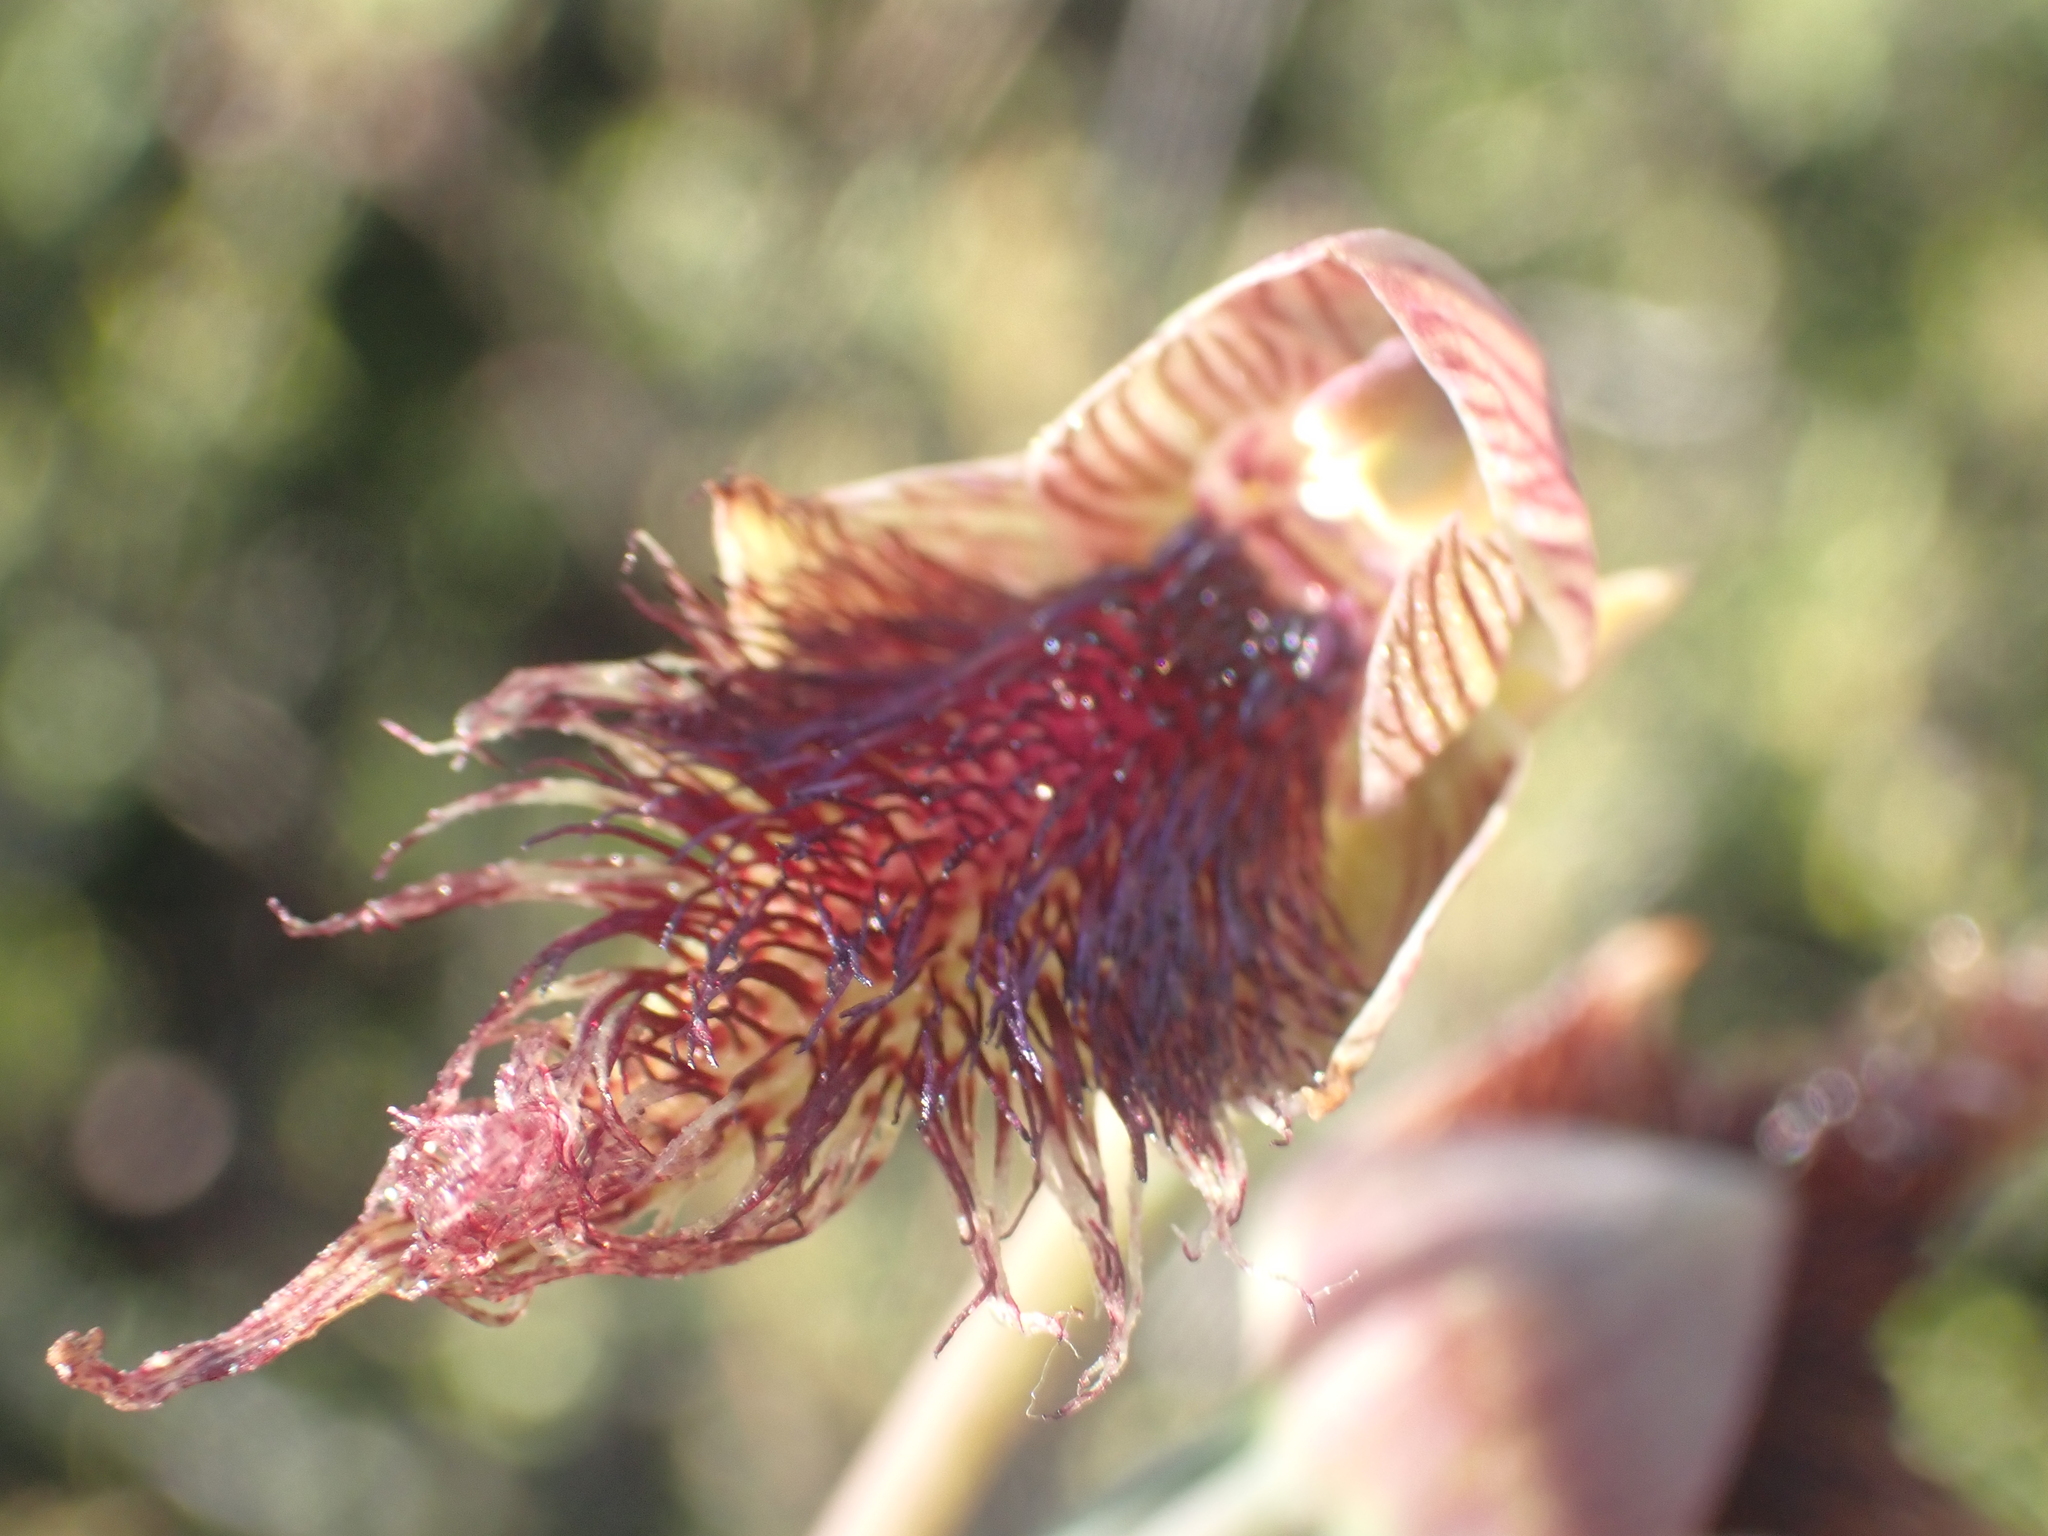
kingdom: Plantae
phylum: Tracheophyta
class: Liliopsida
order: Asparagales
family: Orchidaceae
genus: Calochilus
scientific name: Calochilus robertsonii
